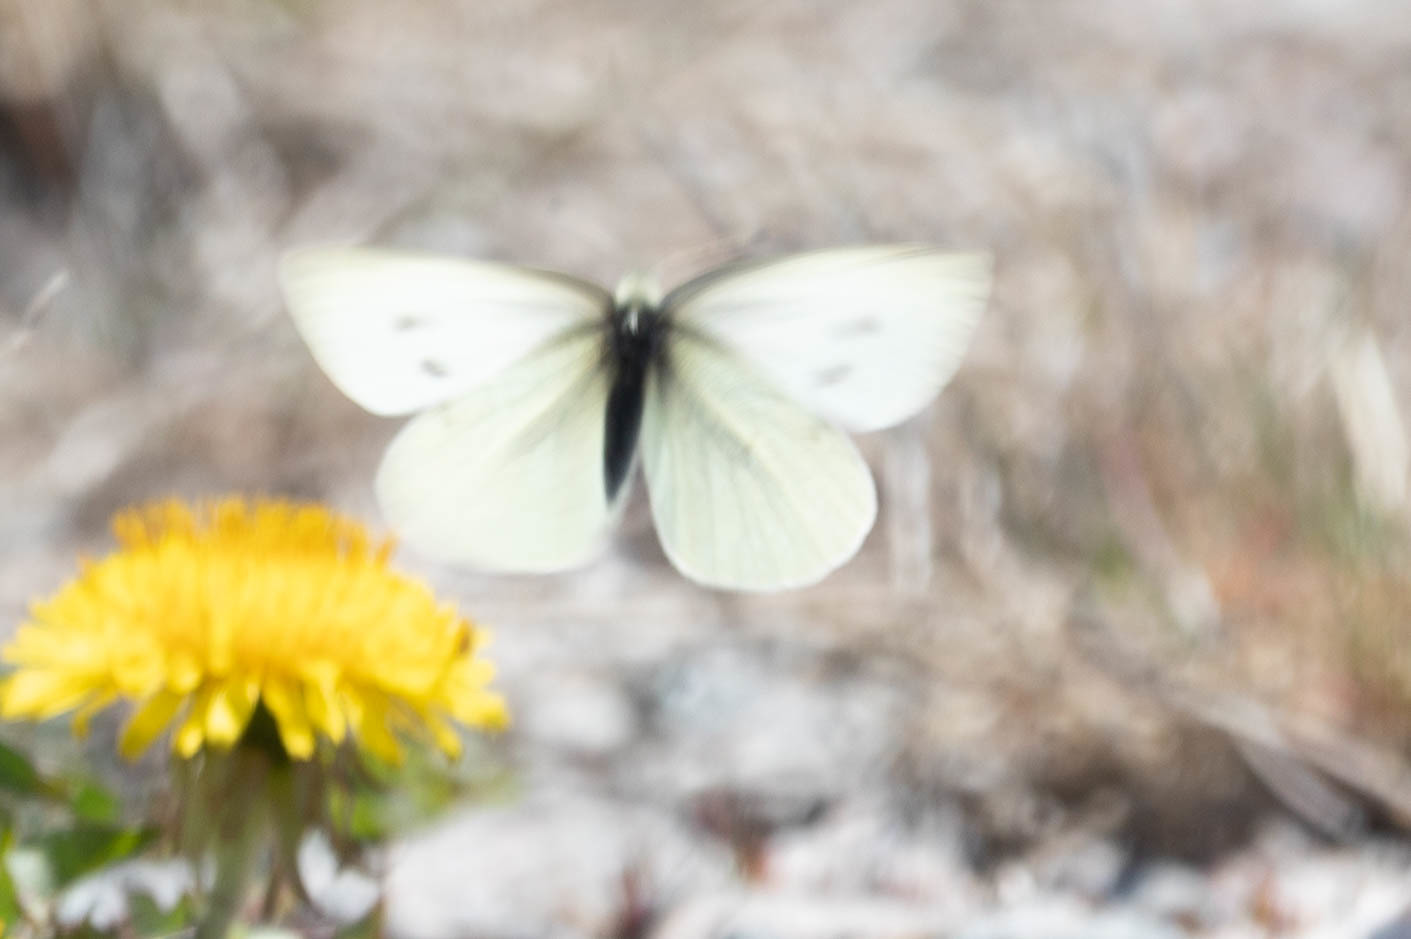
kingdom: Animalia
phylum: Arthropoda
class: Insecta
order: Lepidoptera
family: Pieridae
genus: Pieris
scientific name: Pieris rapae
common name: Small white
